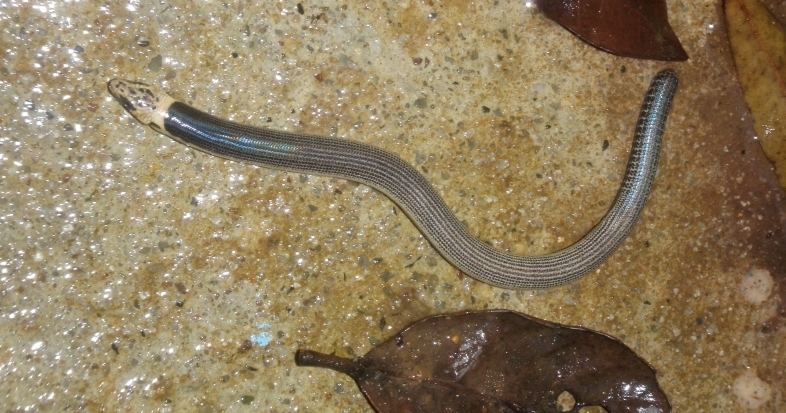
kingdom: Animalia
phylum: Chordata
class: Squamata
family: Scincidae
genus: Coeranoscincus
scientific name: Coeranoscincus frontalis
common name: Limbless snake-tooth skink
